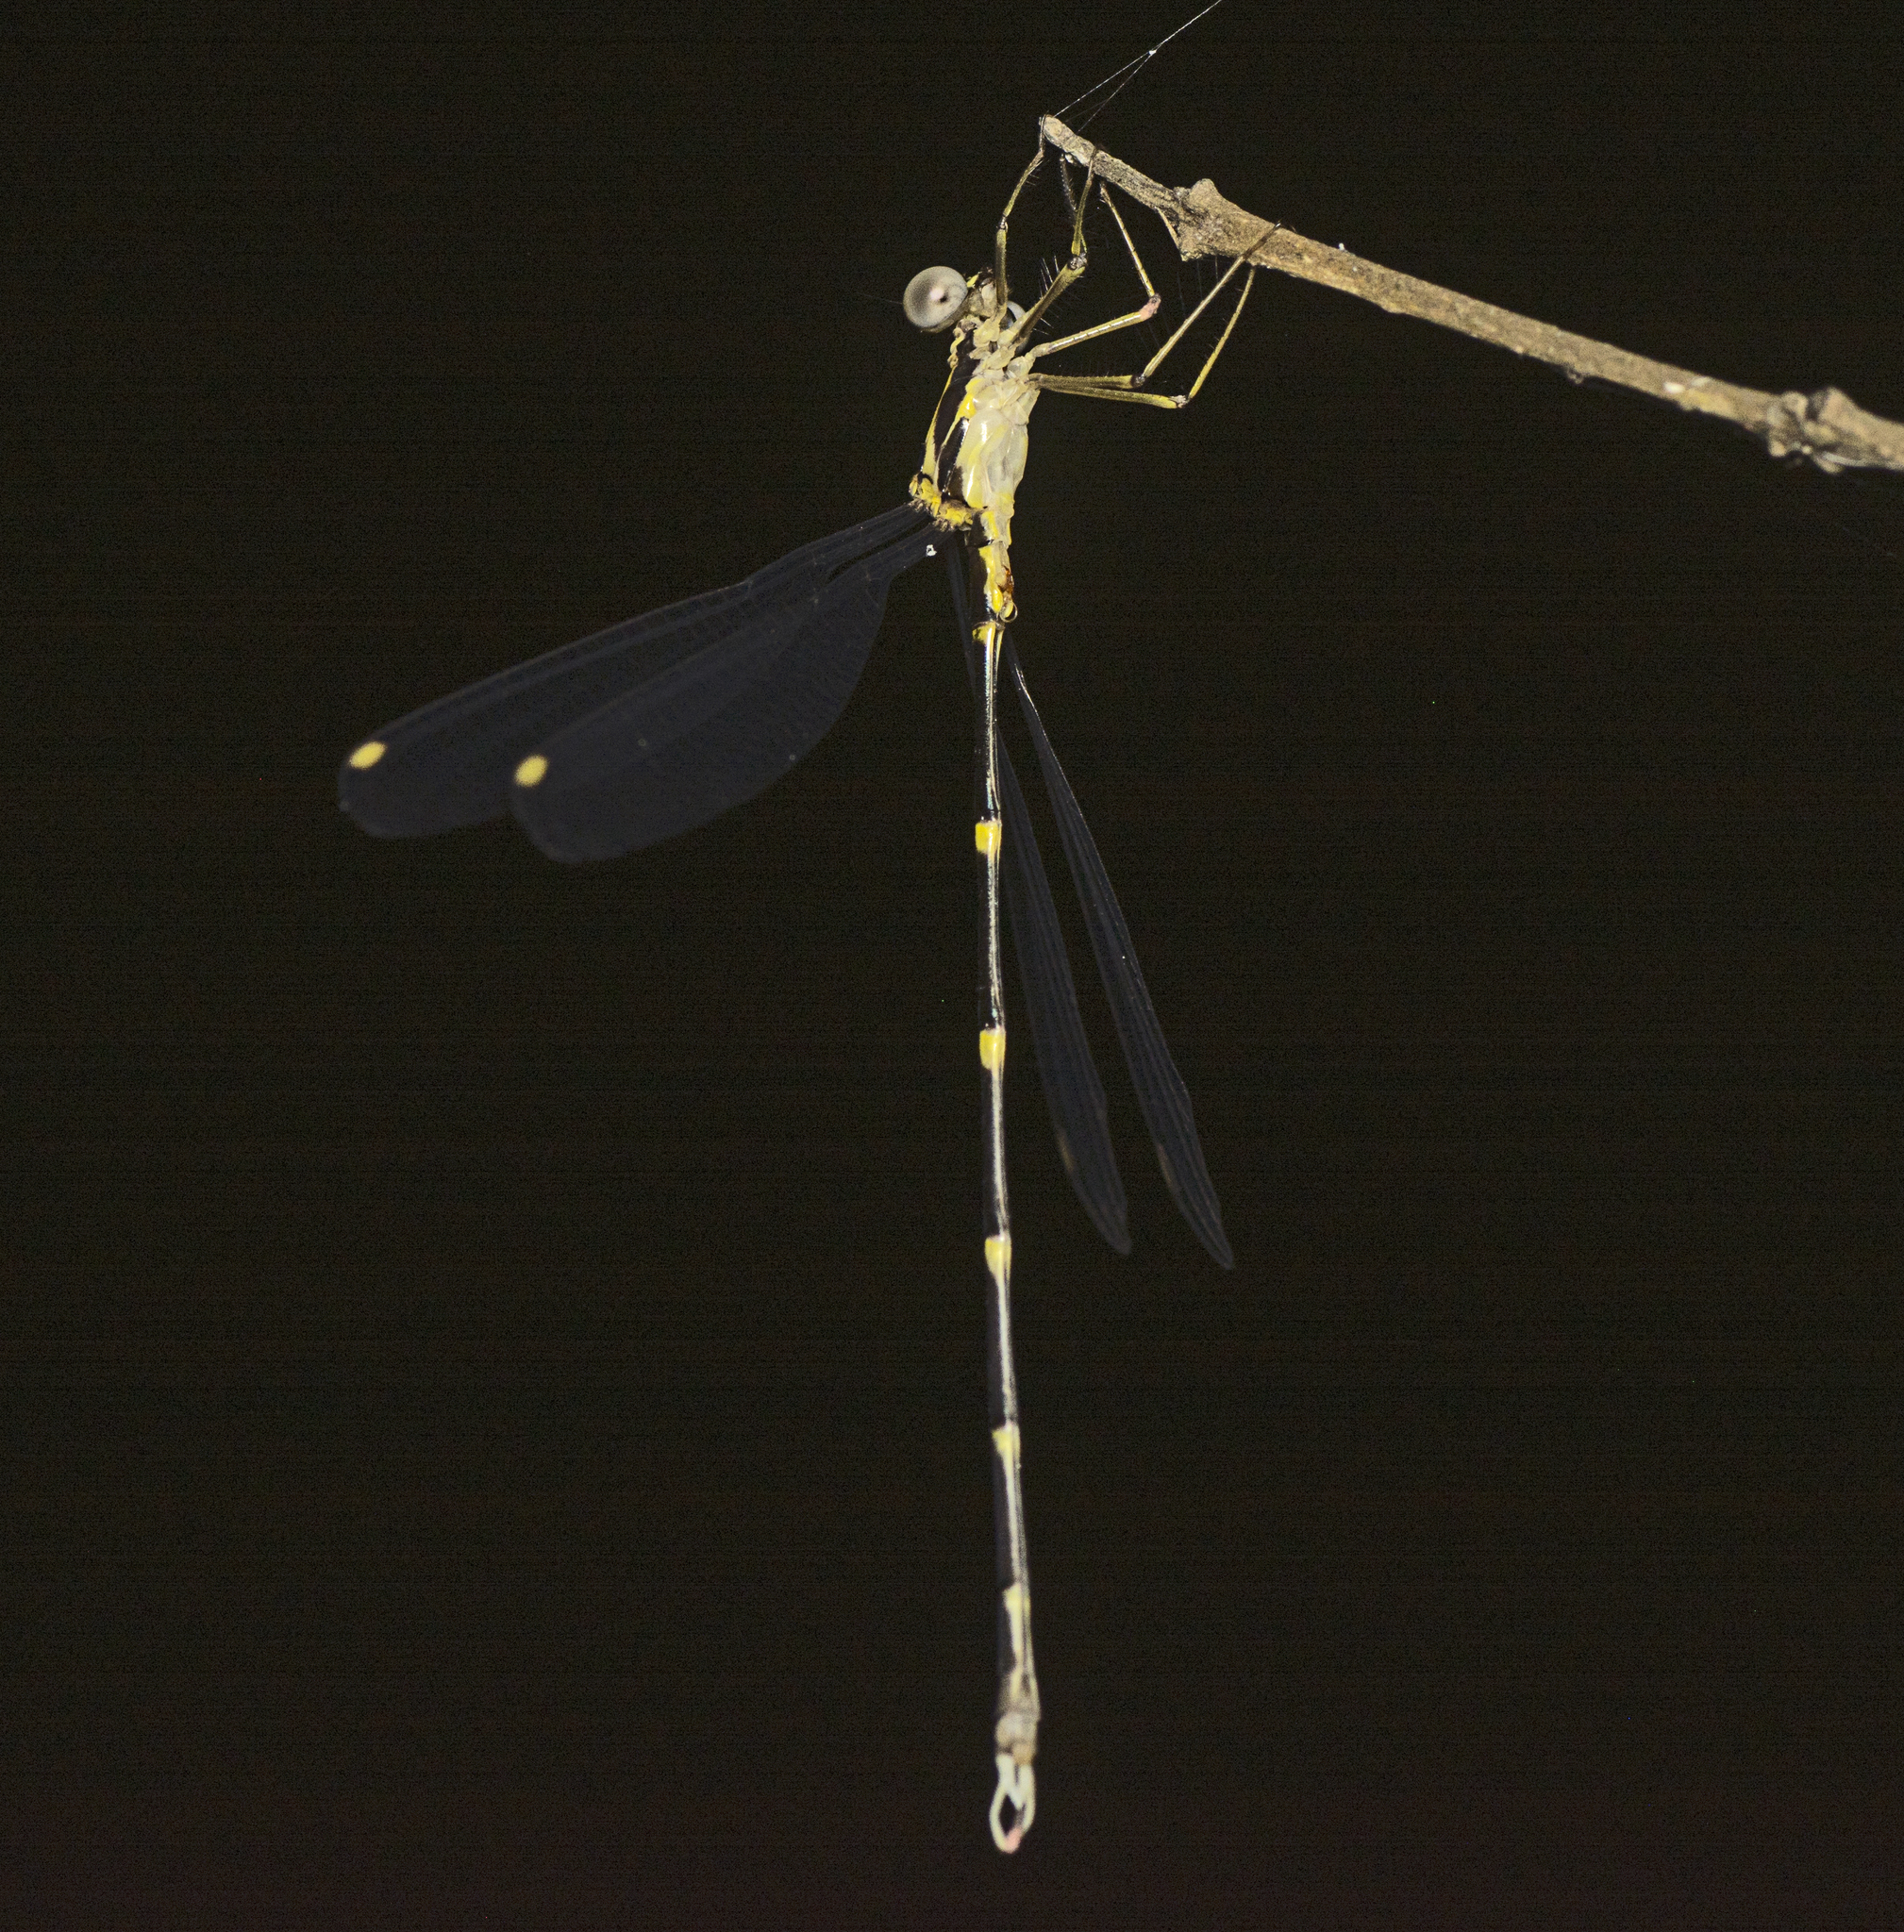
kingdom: Animalia
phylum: Arthropoda
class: Insecta
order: Odonata
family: Synlestidae
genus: Episynlestes
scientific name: Episynlestes albicaudus
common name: Southern whitetip
